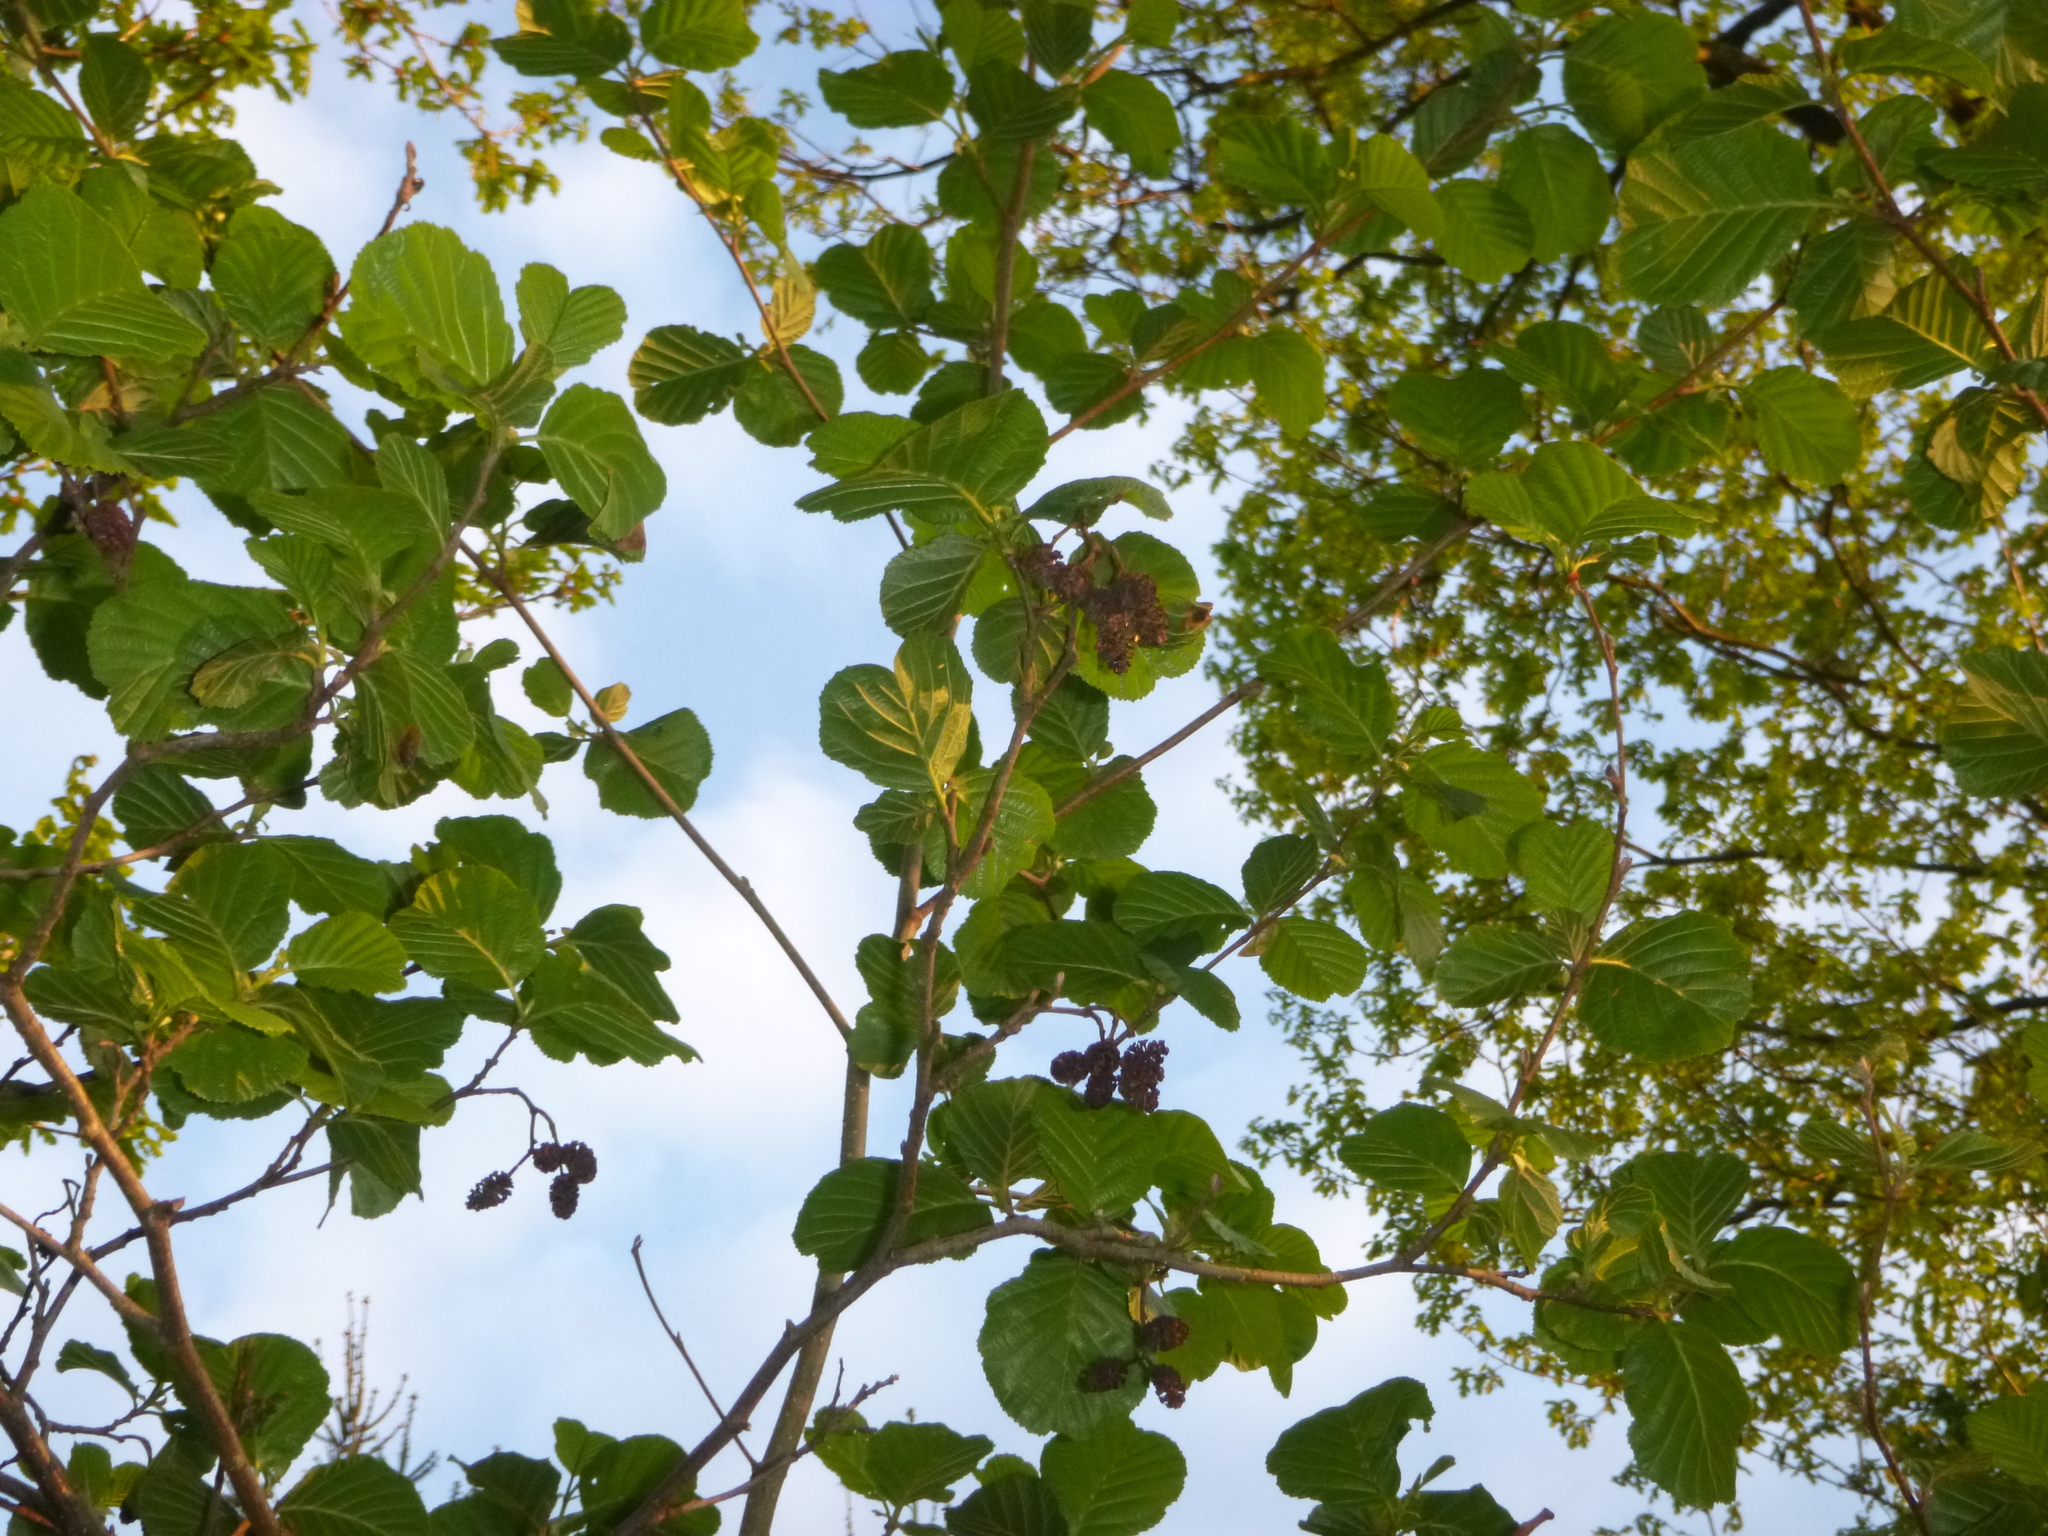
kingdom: Plantae
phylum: Tracheophyta
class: Magnoliopsida
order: Fagales
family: Betulaceae
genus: Alnus
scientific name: Alnus glutinosa
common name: Black alder
